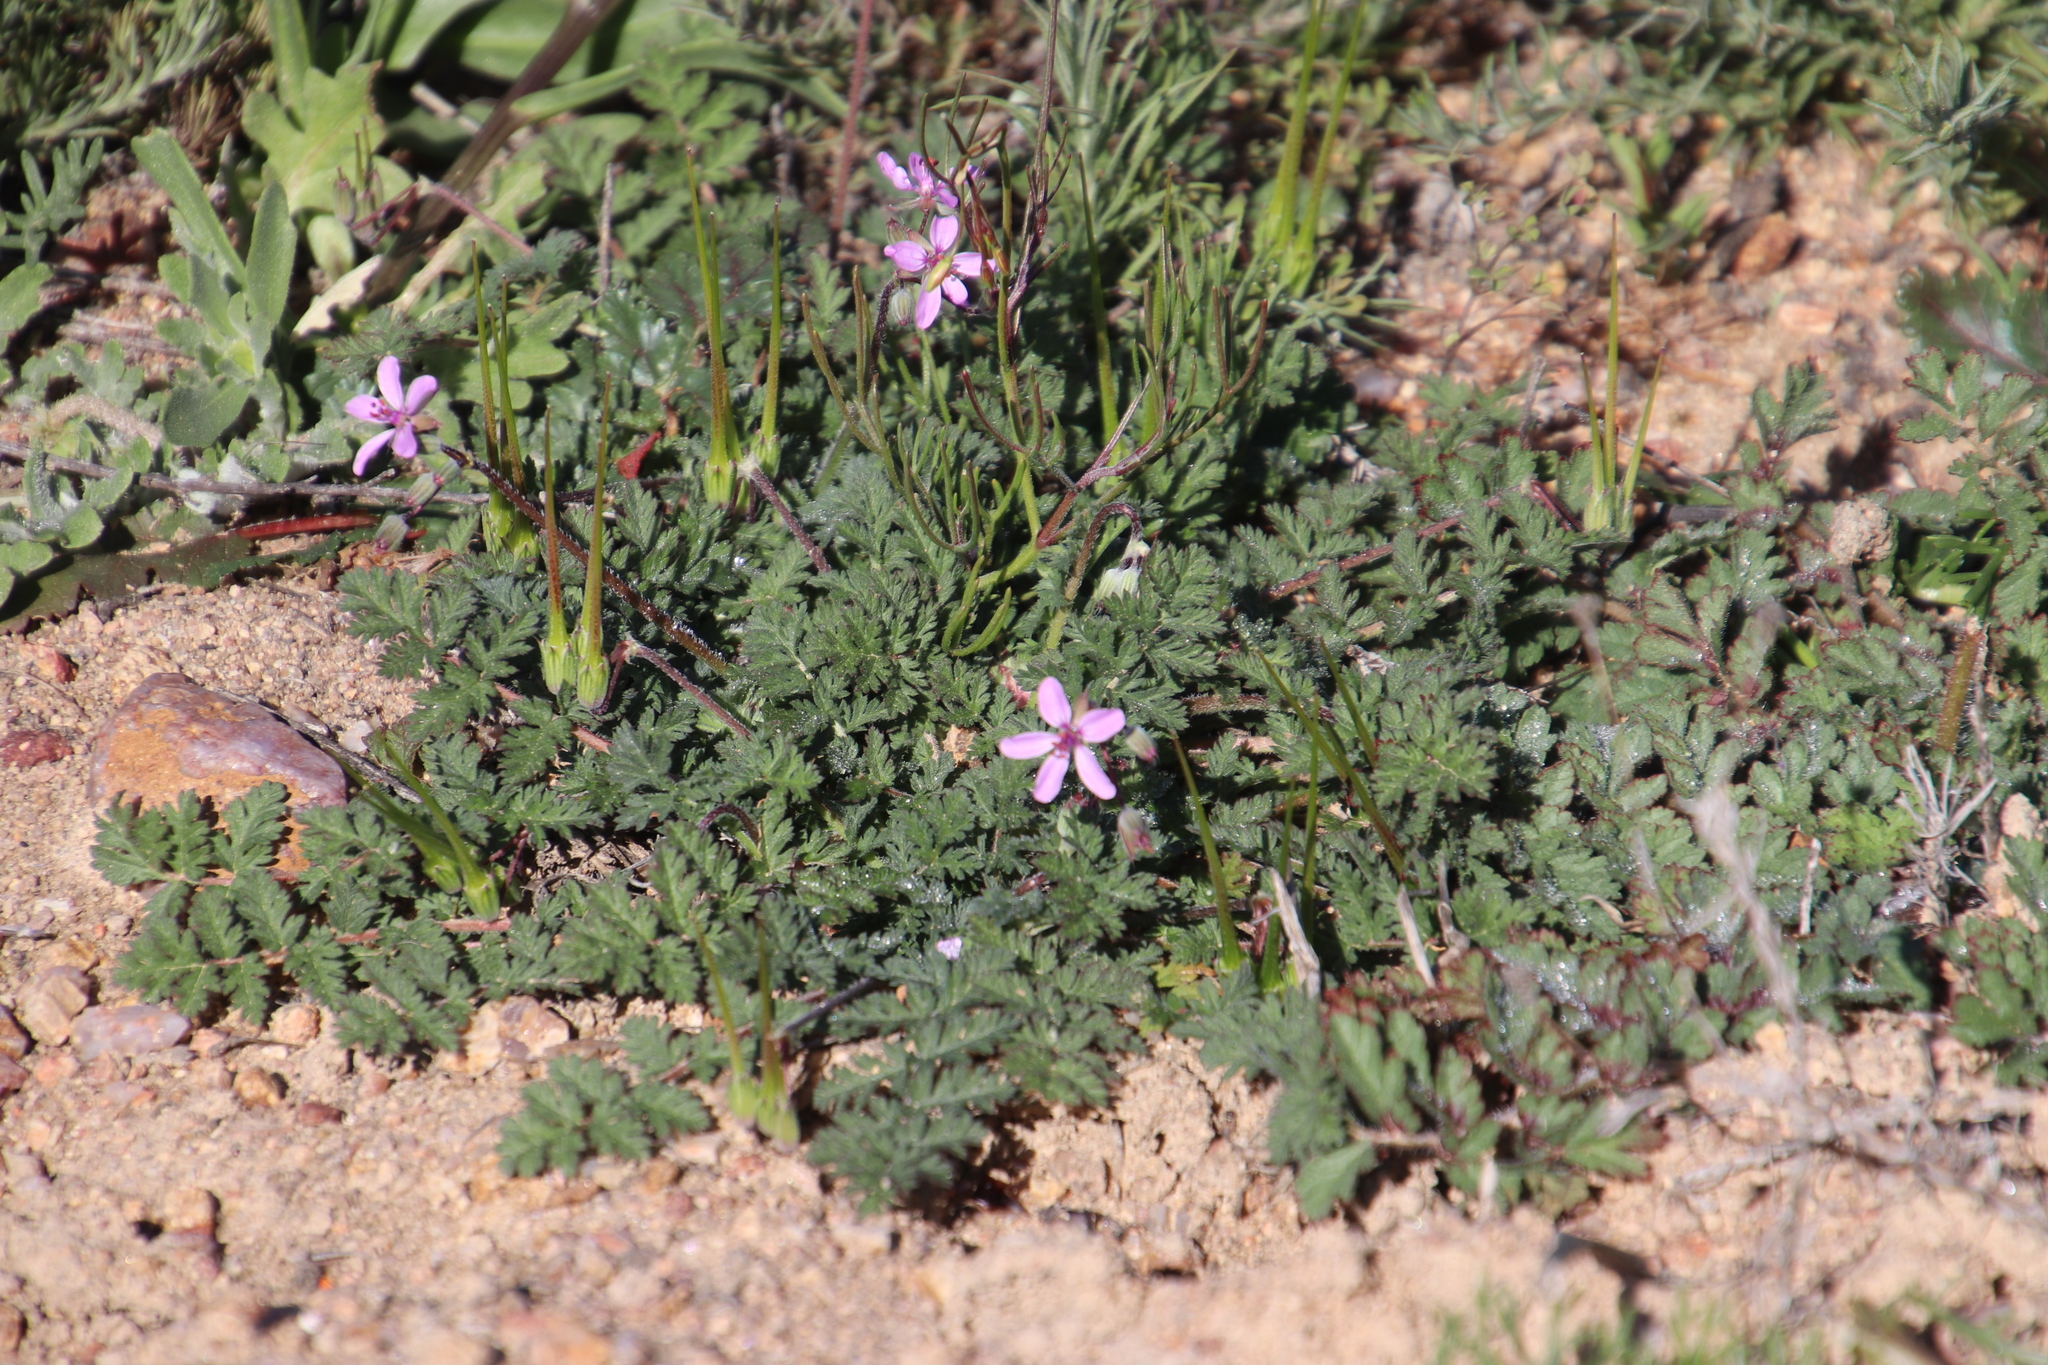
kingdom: Plantae
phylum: Tracheophyta
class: Magnoliopsida
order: Geraniales
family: Geraniaceae
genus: Erodium
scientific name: Erodium cicutarium
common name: Common stork's-bill
